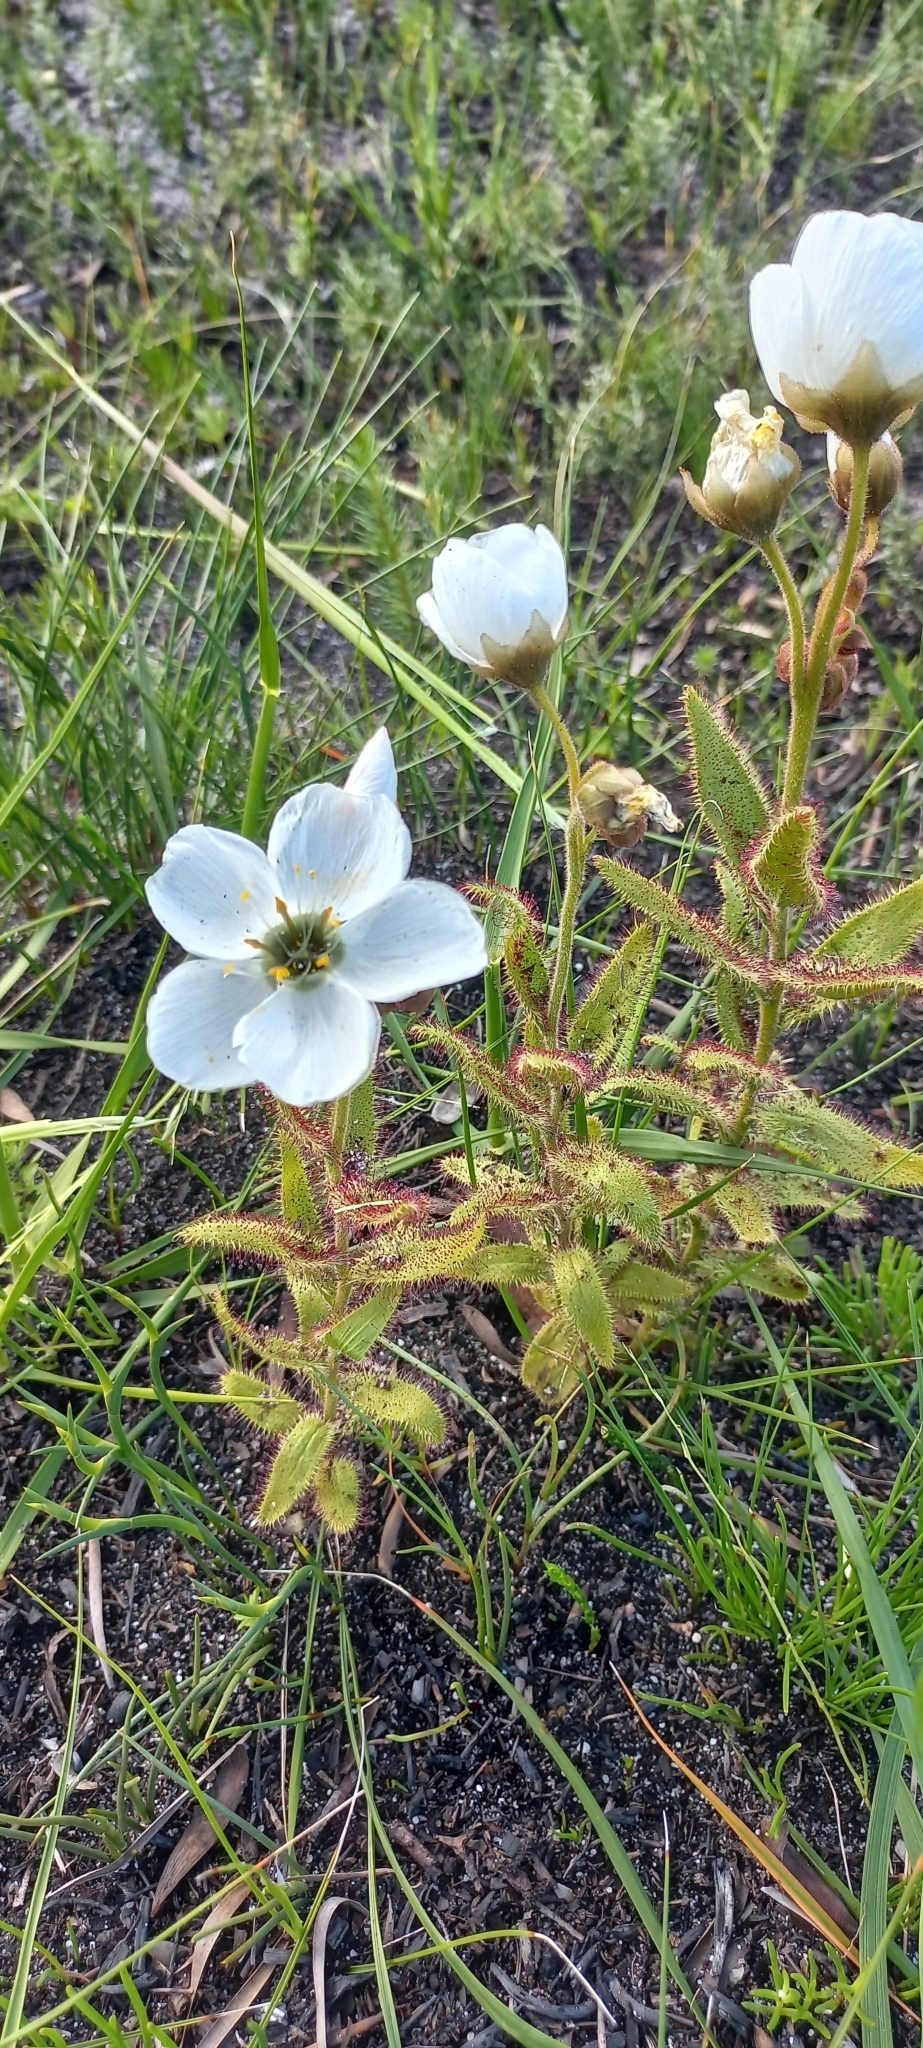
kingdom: Plantae
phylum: Tracheophyta
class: Magnoliopsida
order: Caryophyllales
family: Droseraceae
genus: Drosera
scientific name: Drosera cistiflora
